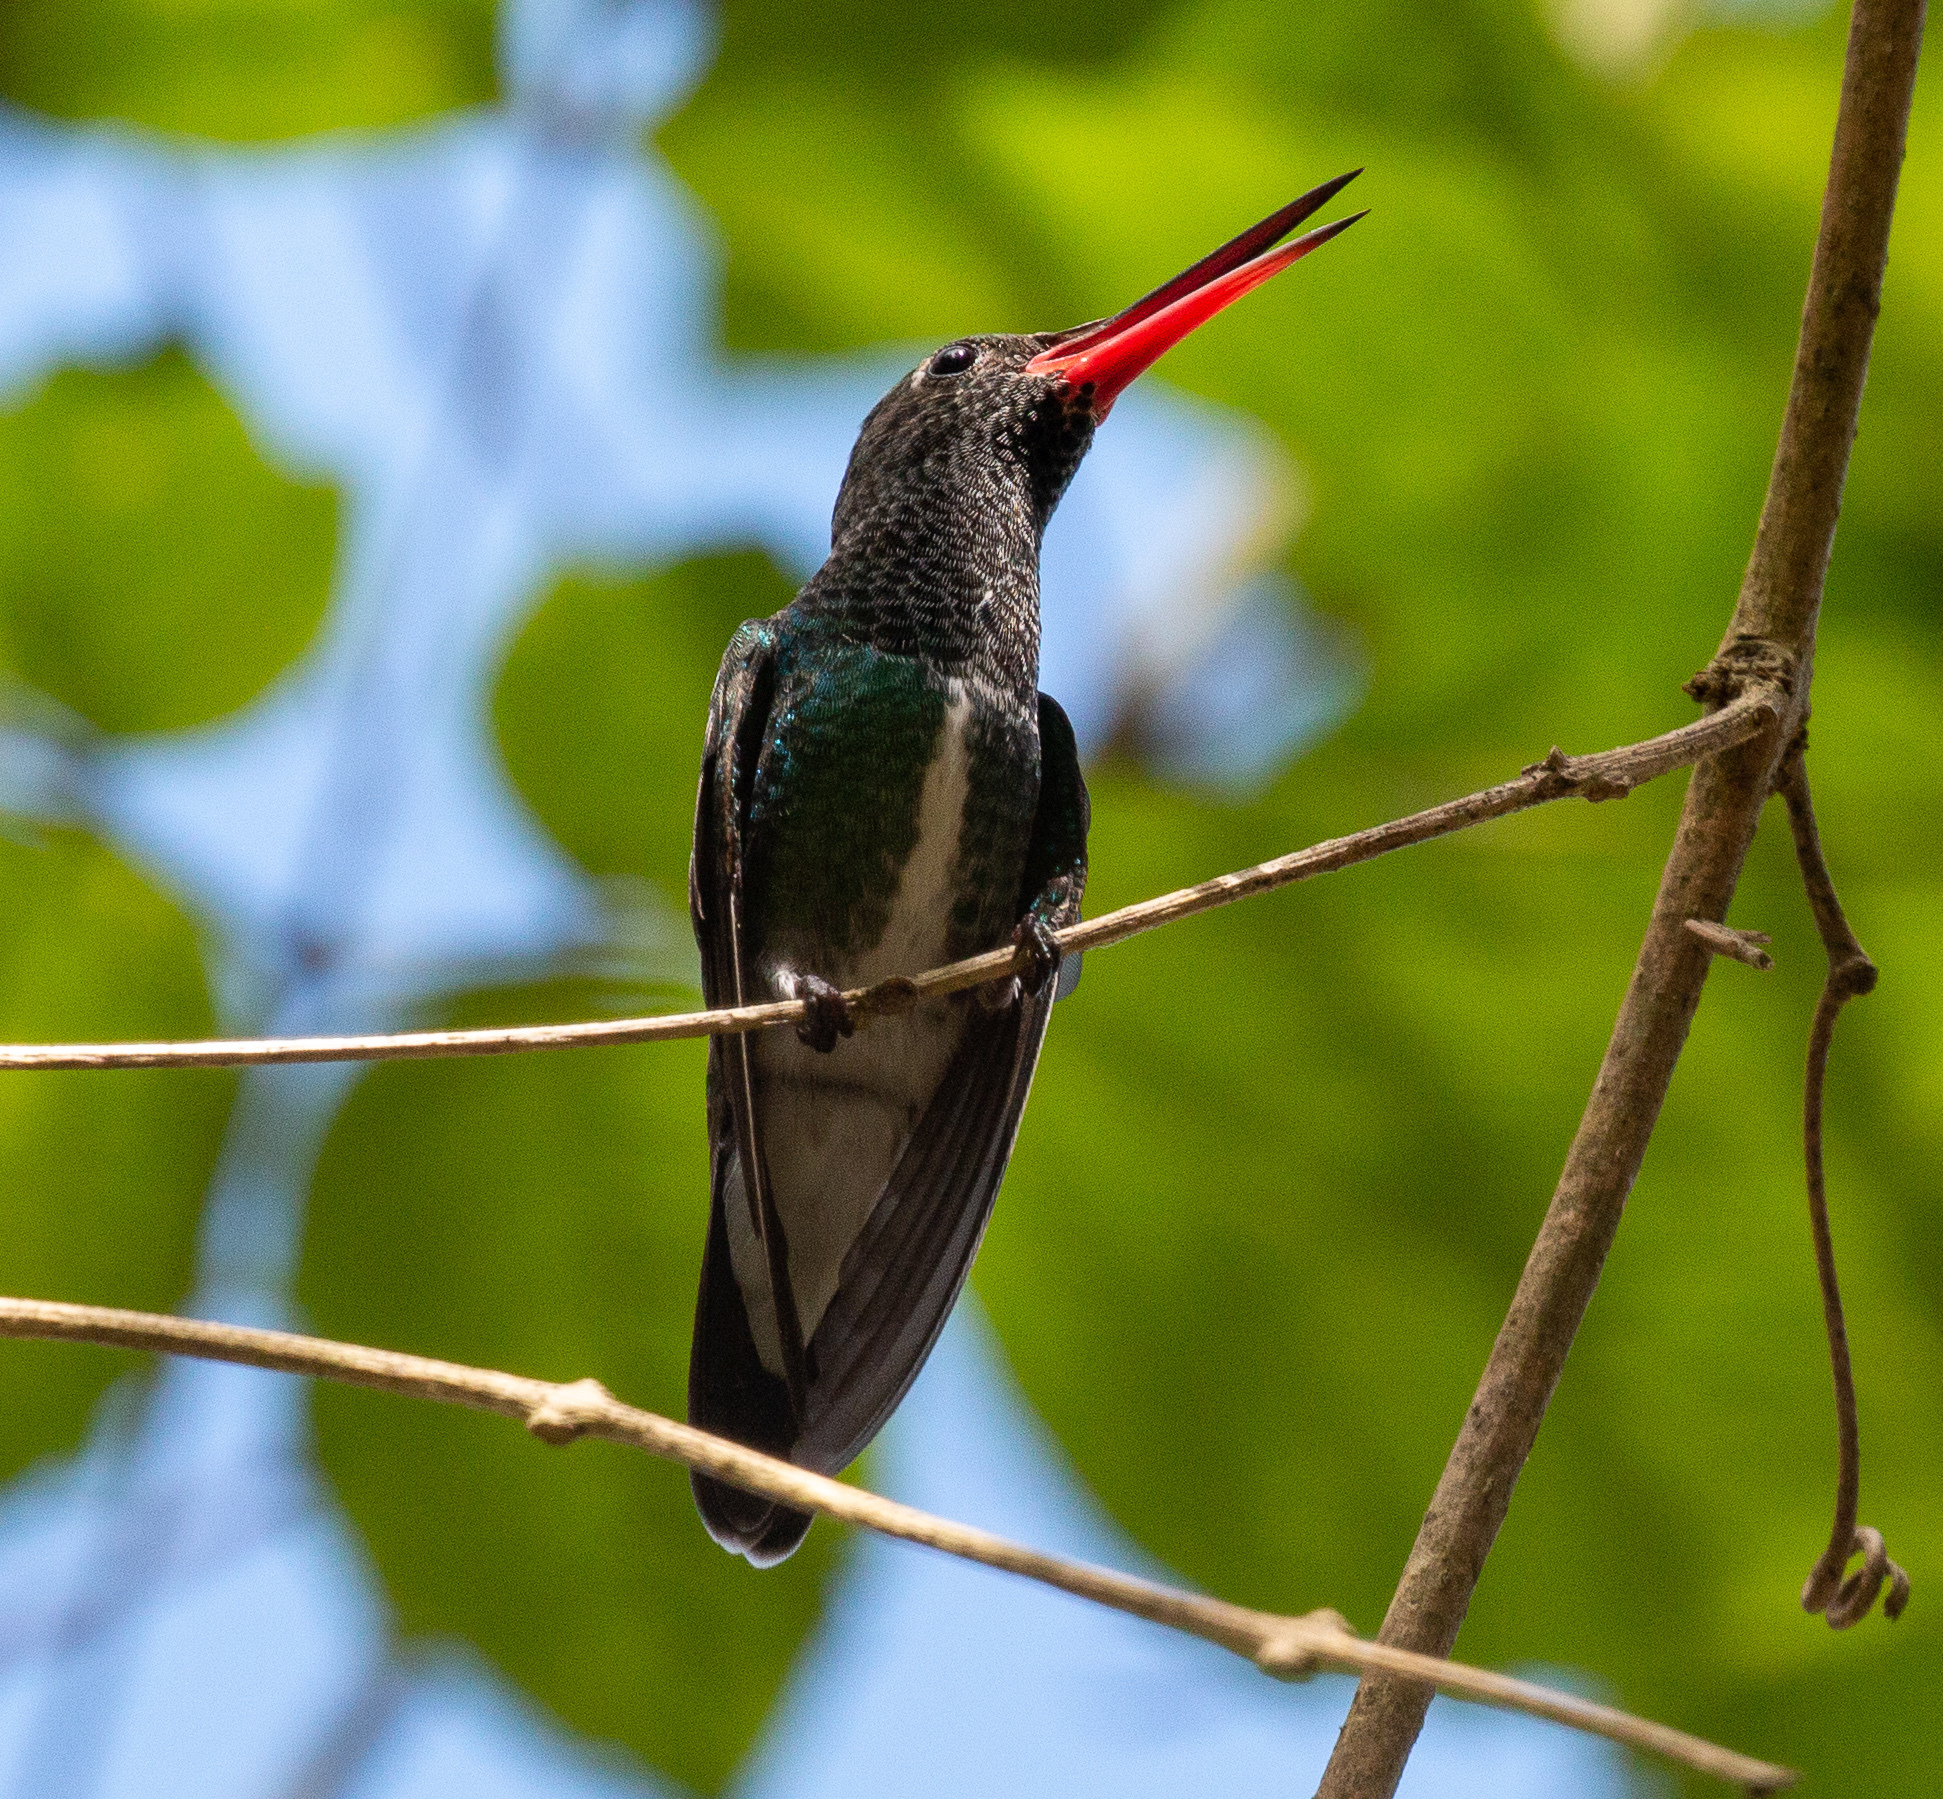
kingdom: Animalia
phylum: Chordata
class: Aves
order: Apodiformes
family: Trochilidae
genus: Chionomesa
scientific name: Chionomesa fimbriata
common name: Glittering-throated emerald
